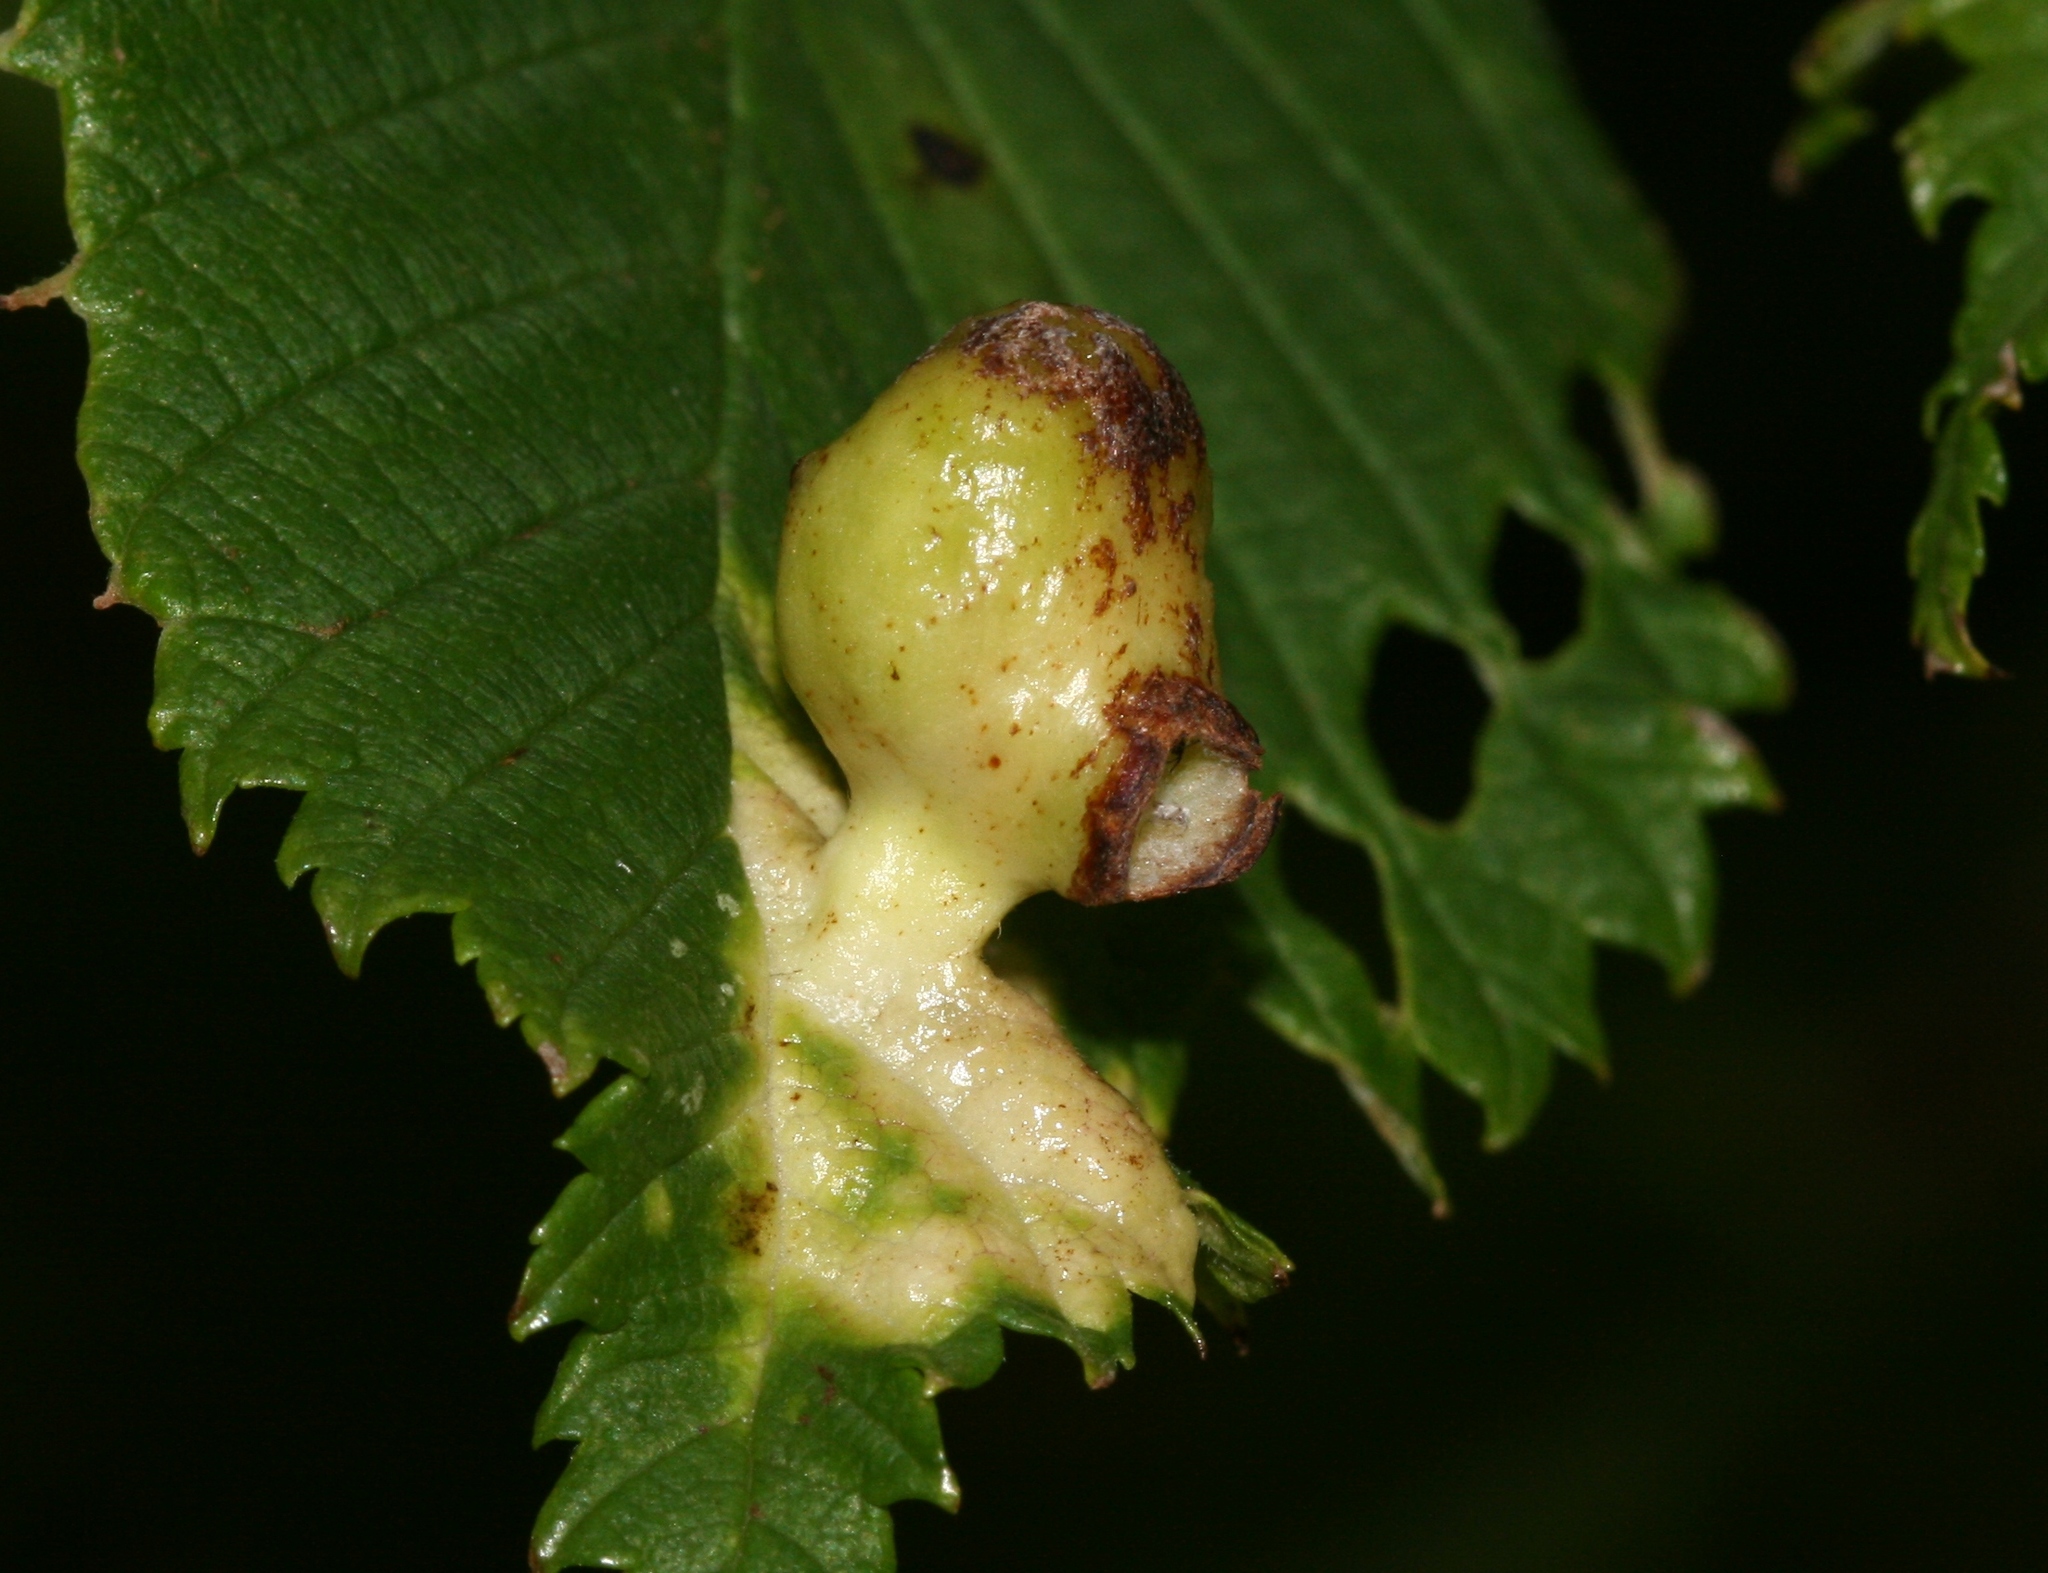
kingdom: Animalia
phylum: Arthropoda
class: Insecta
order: Hemiptera
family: Aphididae
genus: Tetraneura
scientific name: Tetraneura ulmi
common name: Aphid
